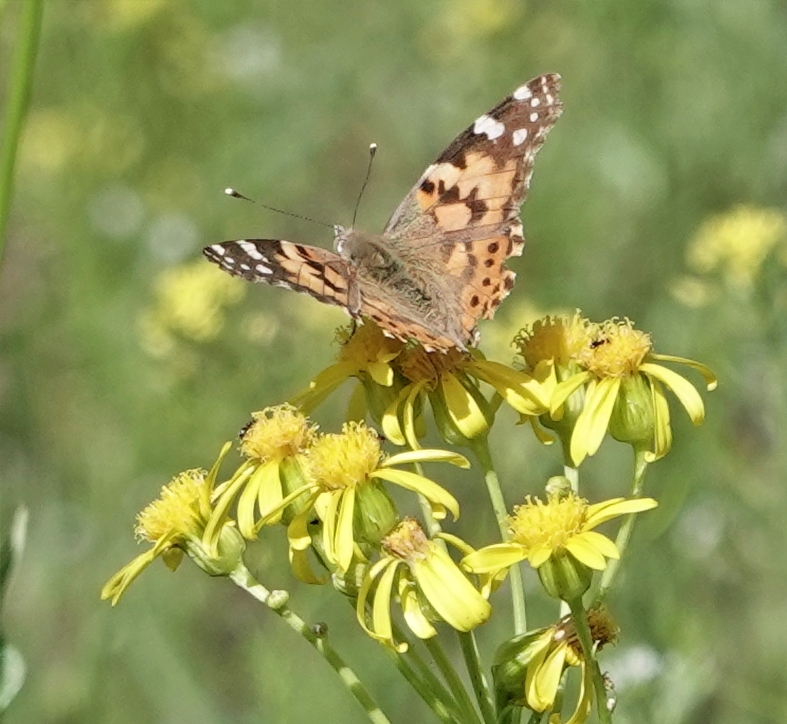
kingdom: Animalia
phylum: Arthropoda
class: Insecta
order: Lepidoptera
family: Nymphalidae
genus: Vanessa
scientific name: Vanessa cardui
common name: Painted lady
